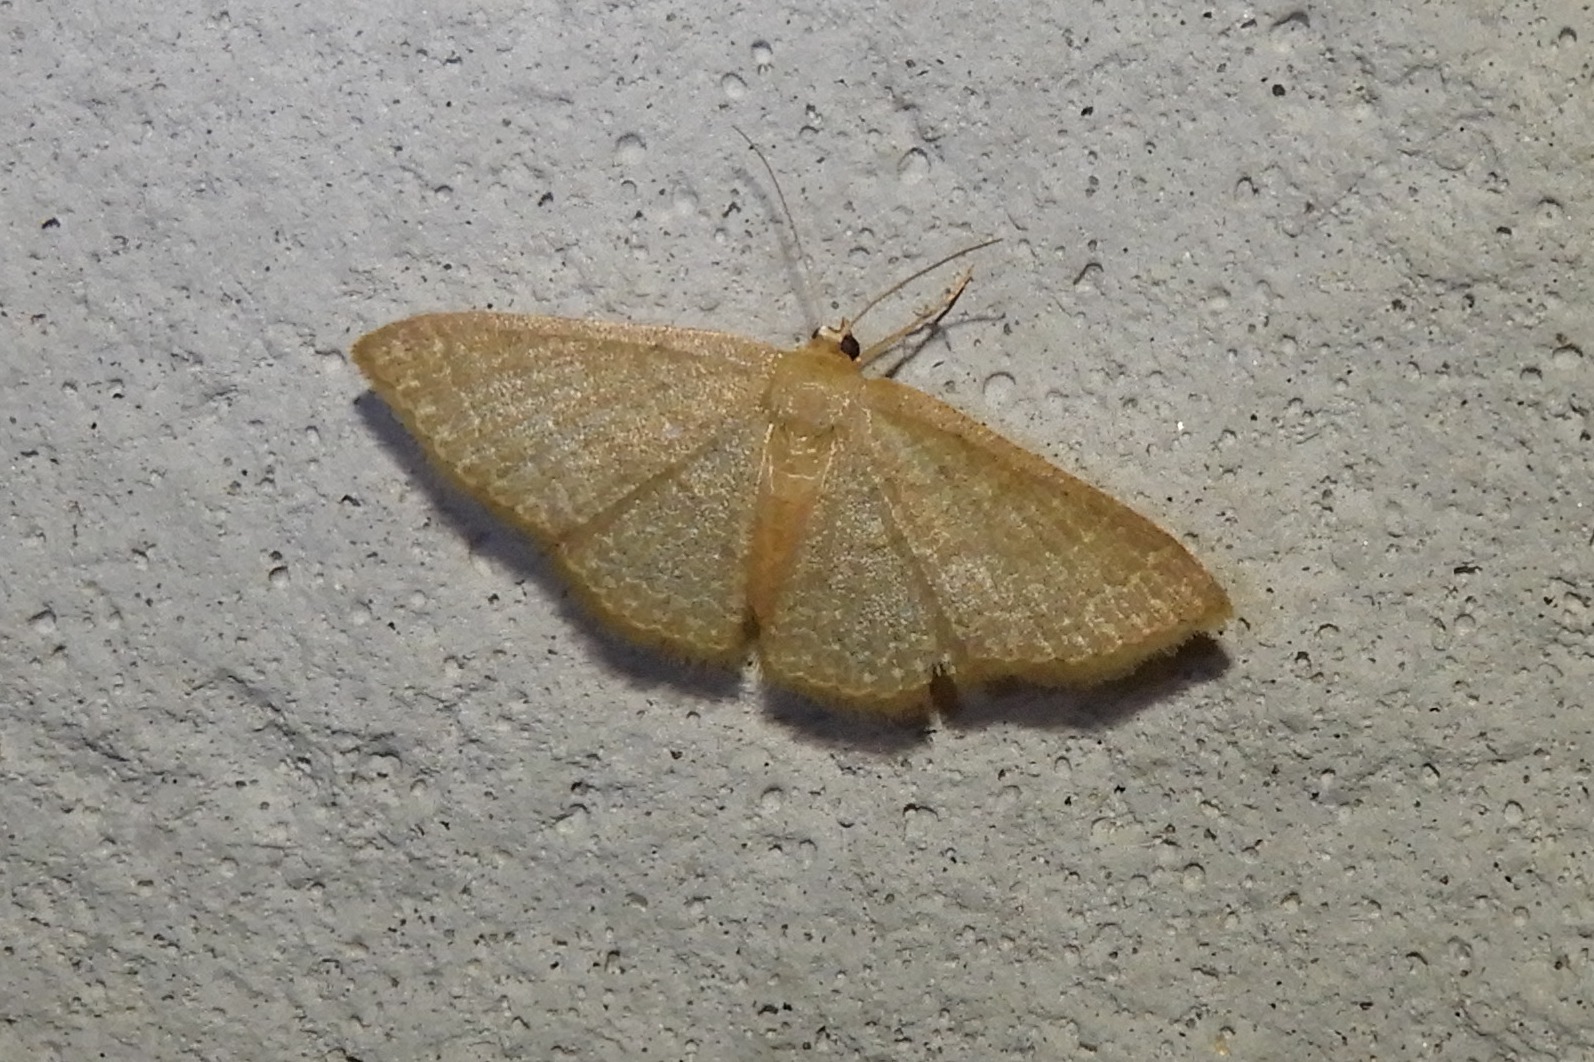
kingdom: Animalia
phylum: Arthropoda
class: Insecta
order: Lepidoptera
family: Geometridae
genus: Pleuroprucha
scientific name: Pleuroprucha insulsaria
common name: Common tan wave
